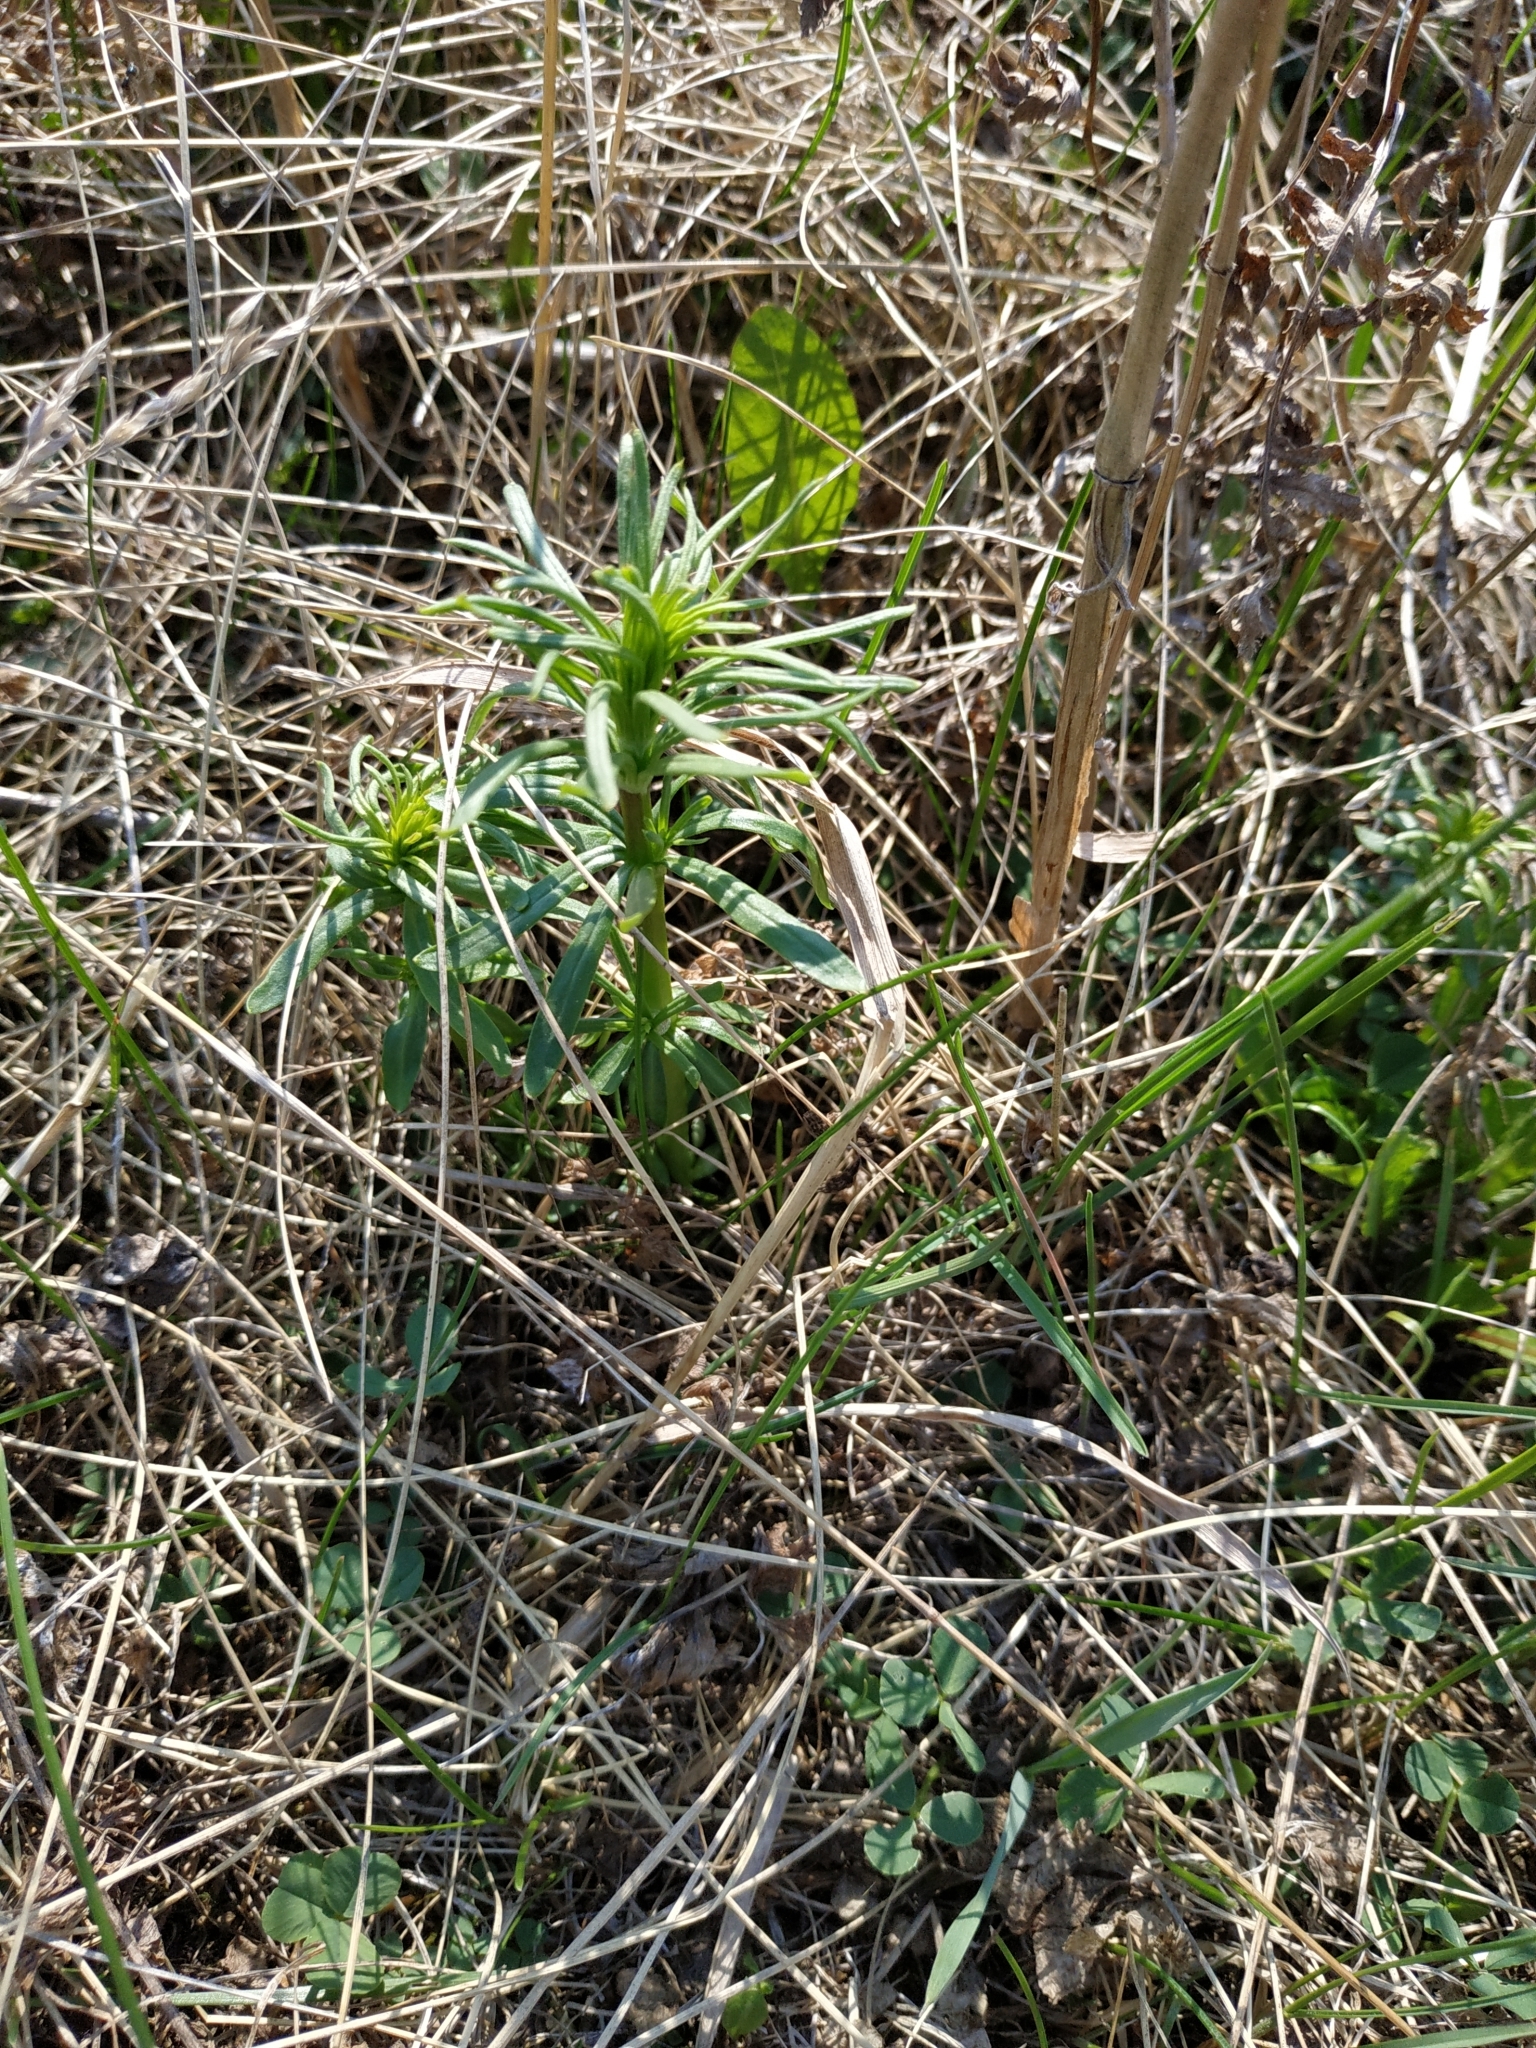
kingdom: Plantae
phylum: Tracheophyta
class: Magnoliopsida
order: Gentianales
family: Rubiaceae
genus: Galium
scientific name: Galium mollugo
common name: Hedge bedstraw
